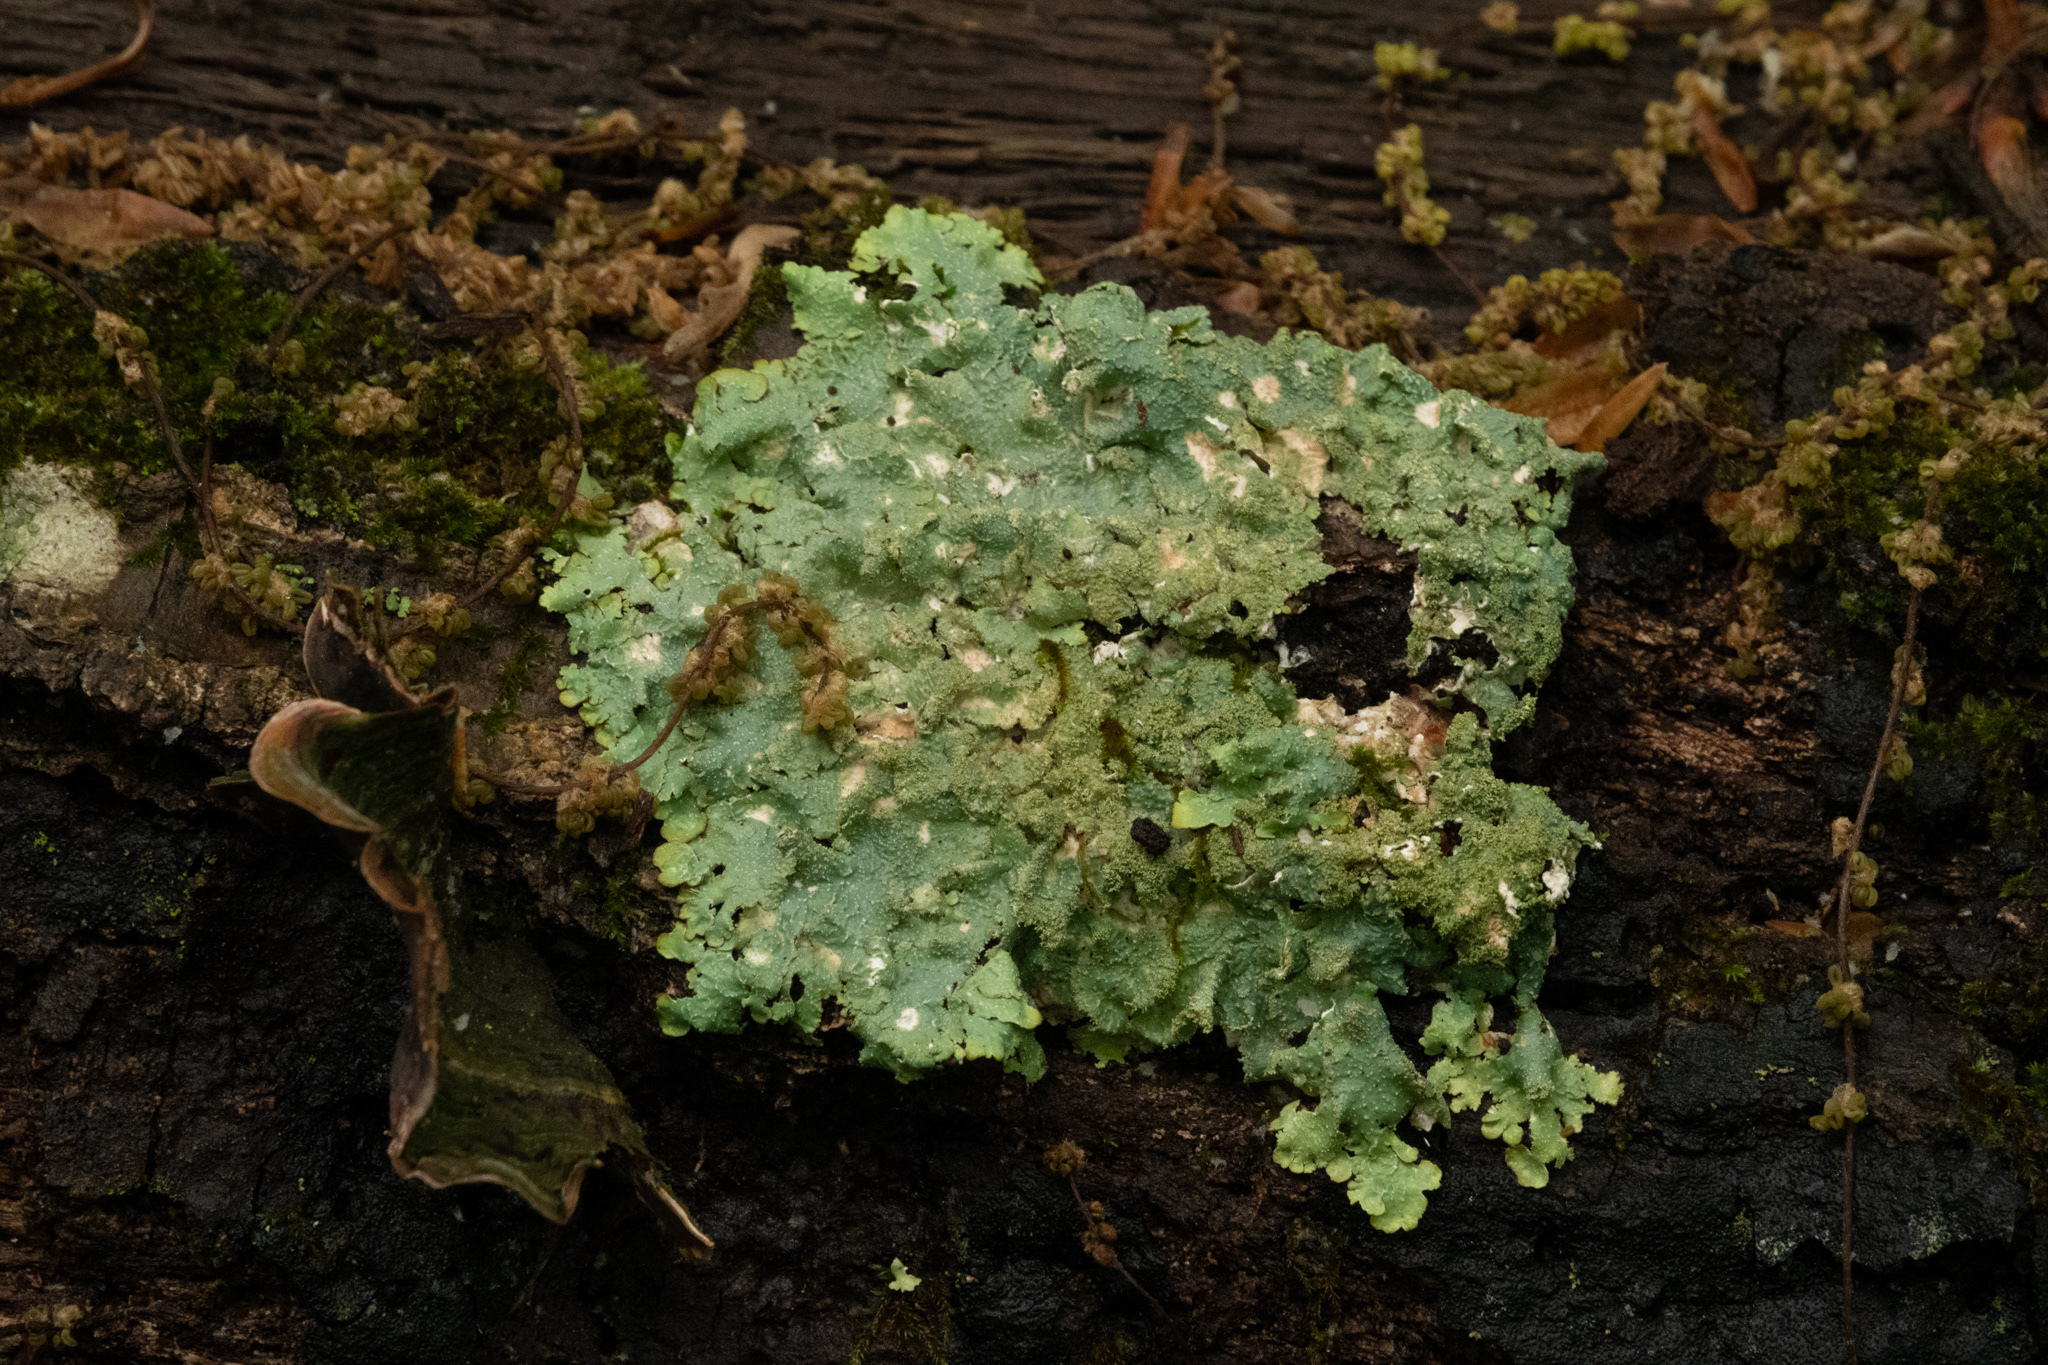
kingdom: Fungi
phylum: Ascomycota
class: Lecanoromycetes
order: Lecanorales
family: Parmeliaceae
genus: Punctelia
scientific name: Punctelia rudecta
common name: Rough speckled shield lichen
